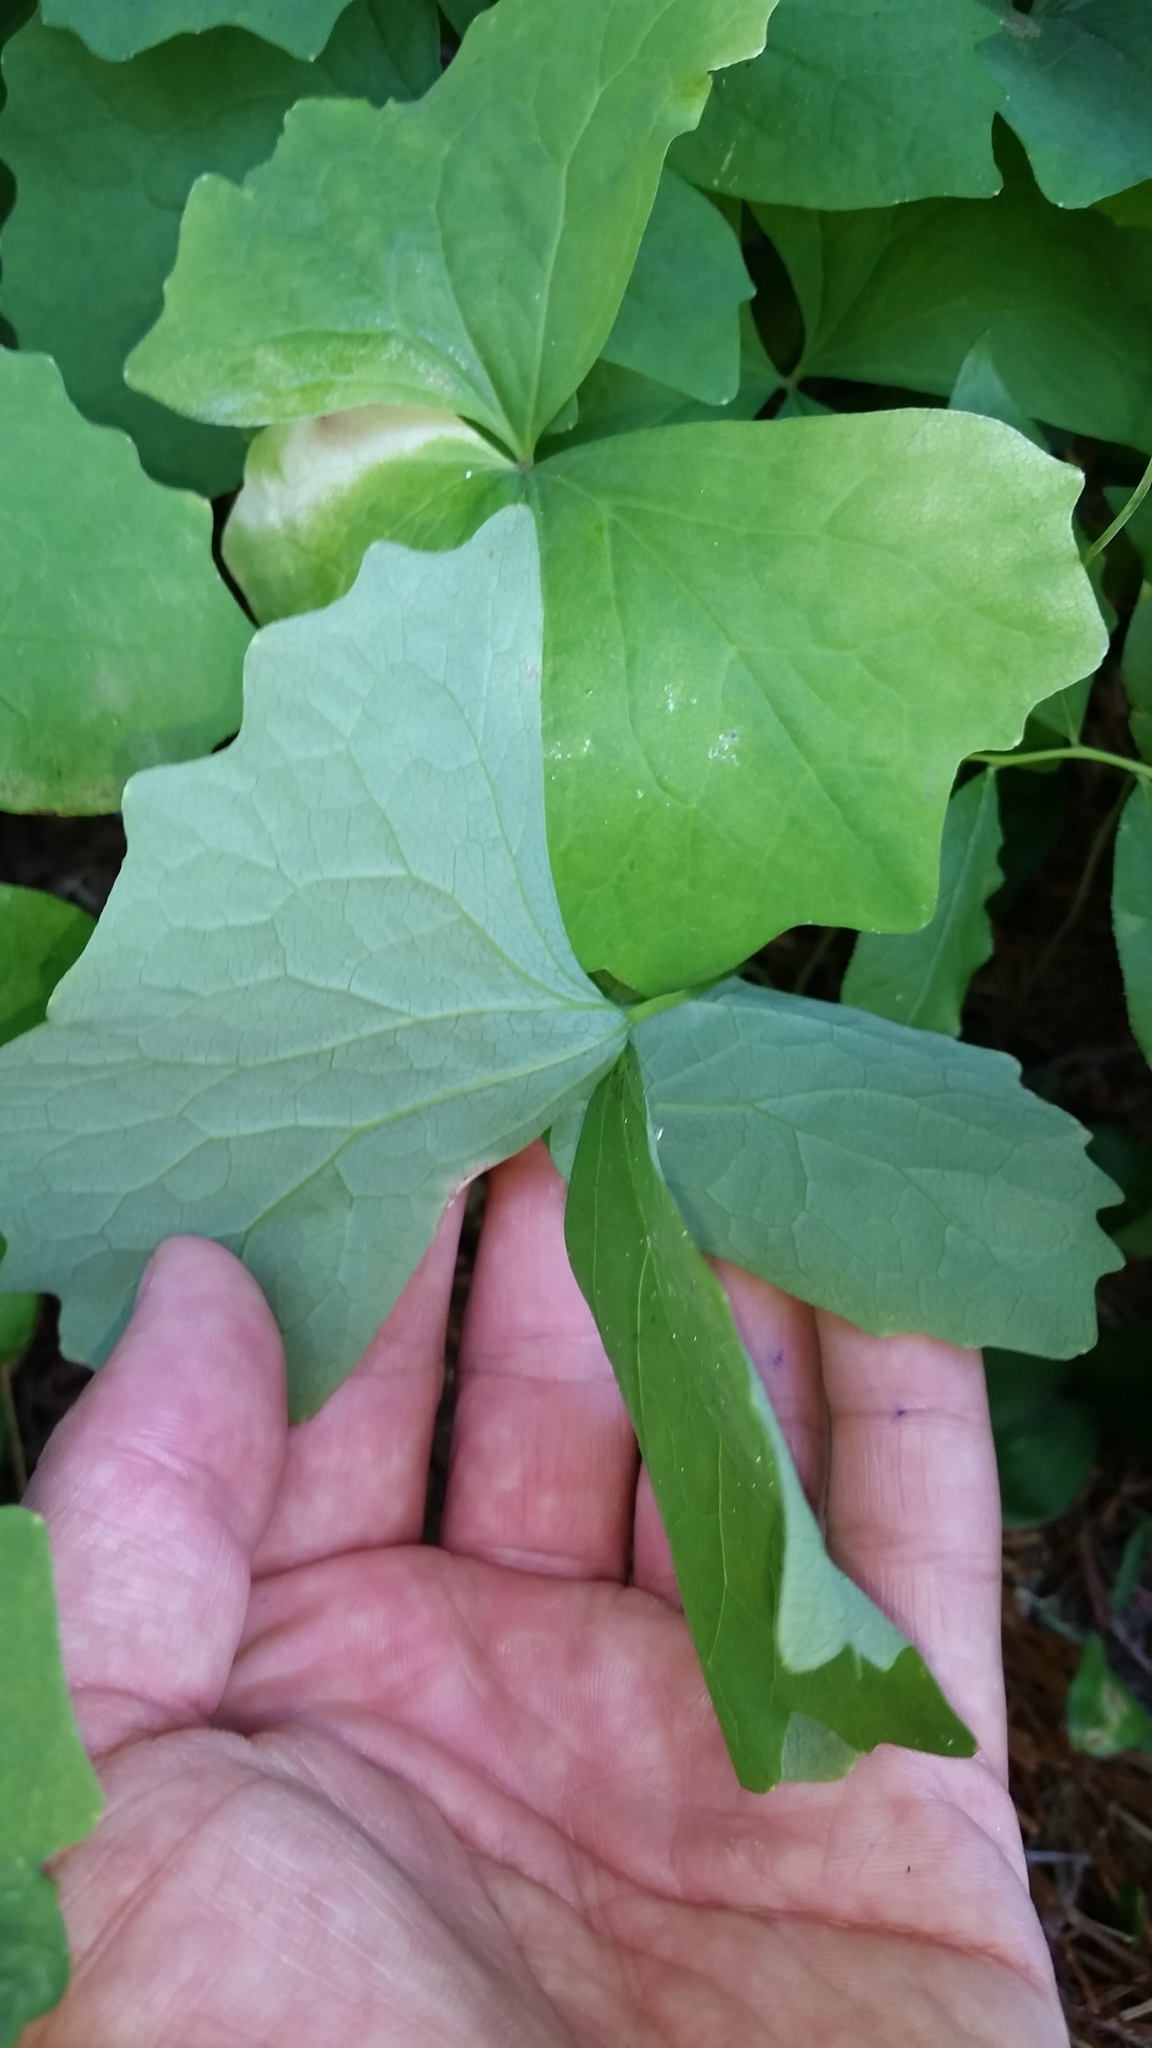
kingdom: Plantae
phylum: Tracheophyta
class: Magnoliopsida
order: Ranunculales
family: Berberidaceae
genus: Achlys
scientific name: Achlys triphylla
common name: Vanilla-leaf
